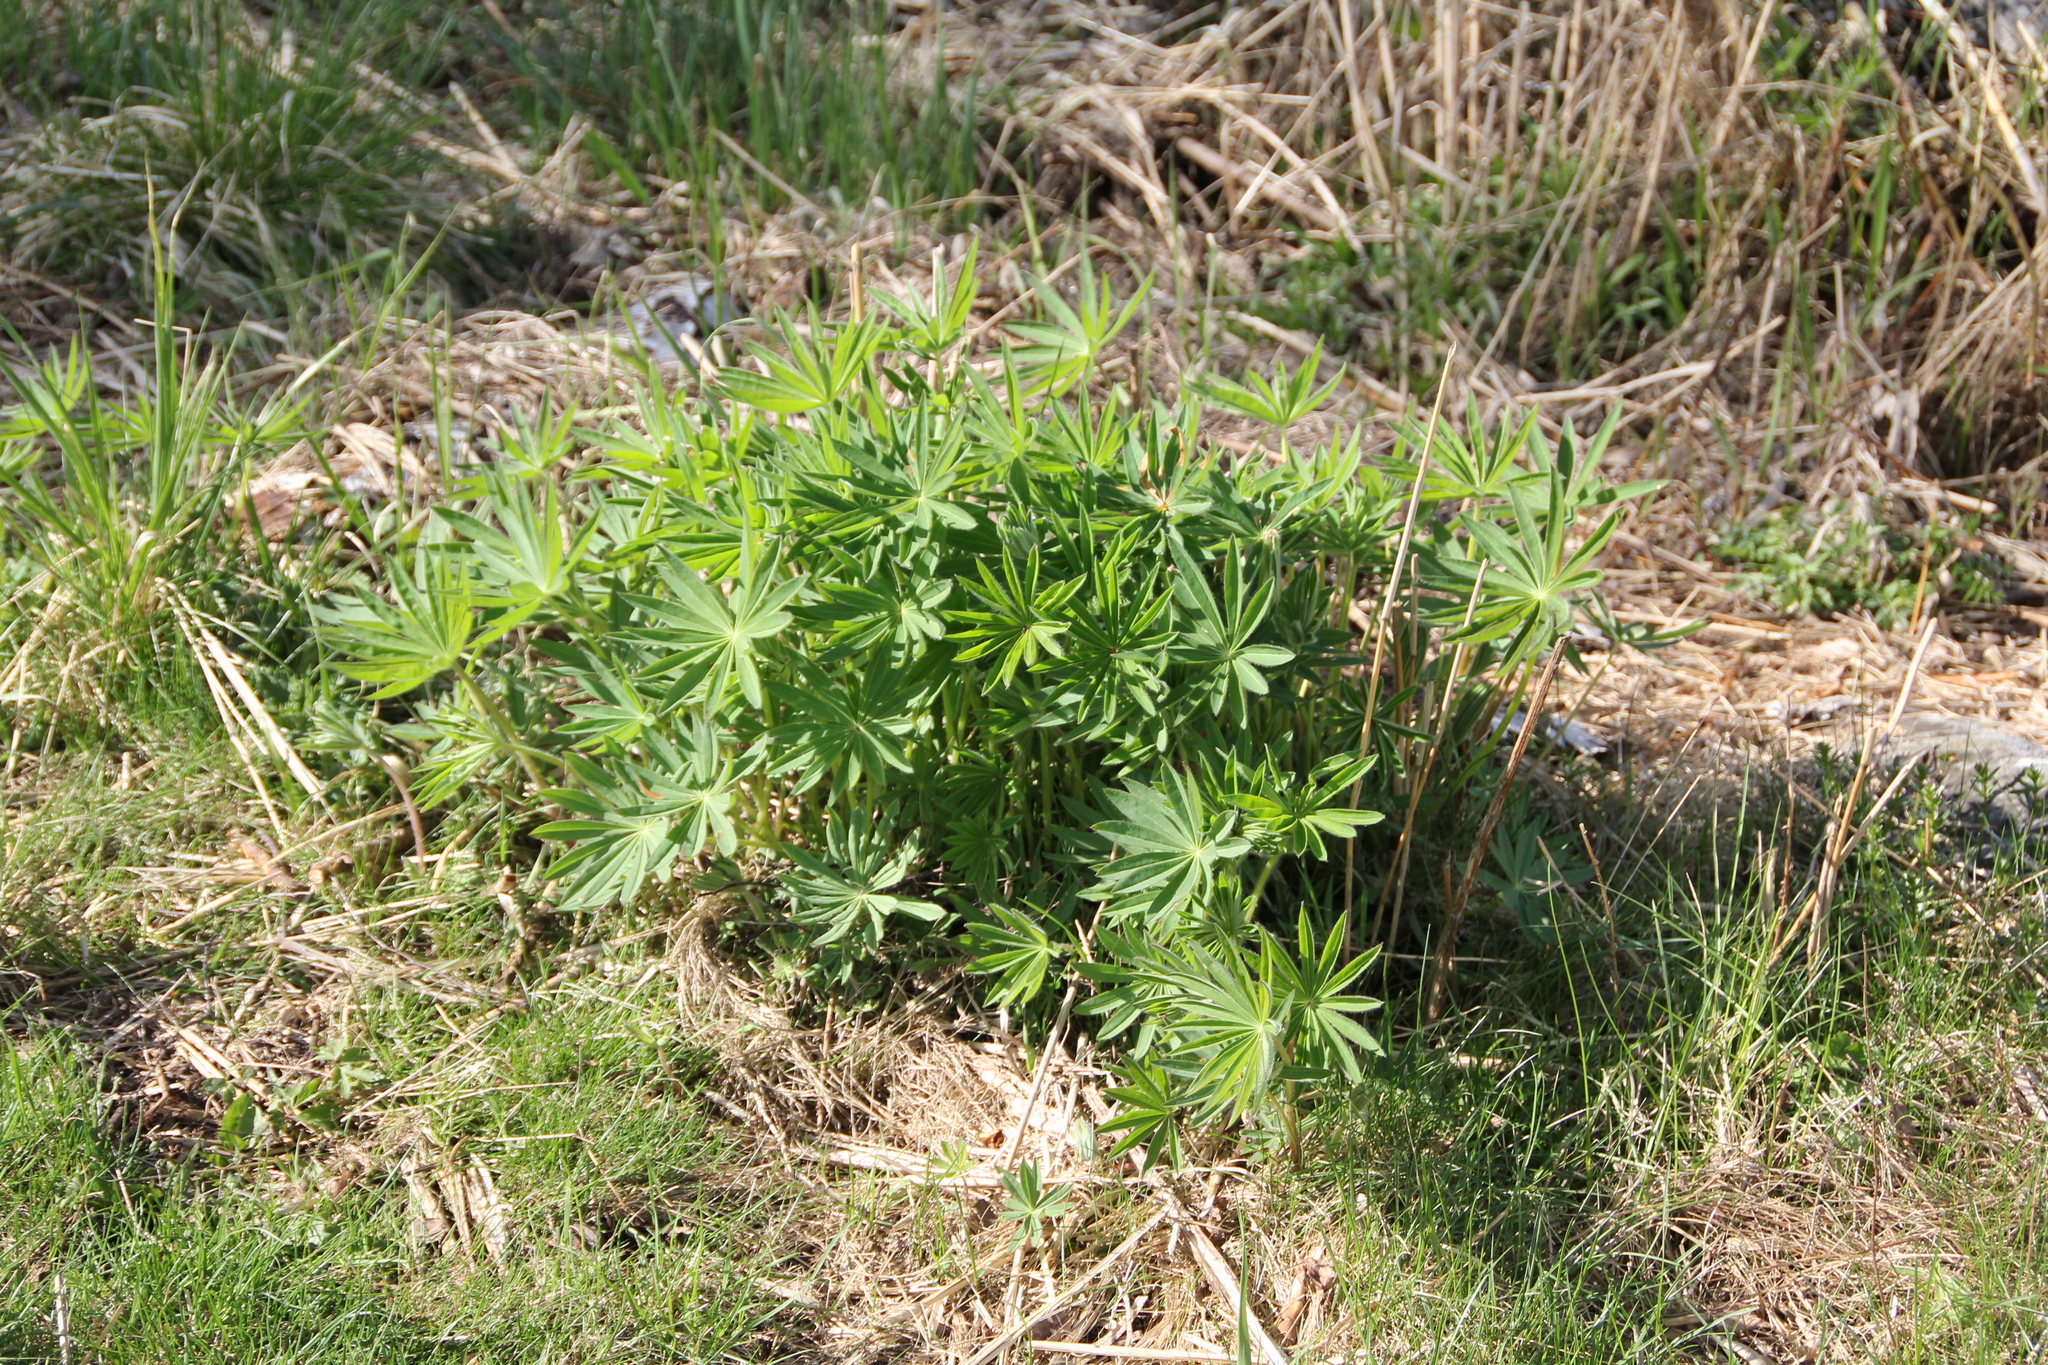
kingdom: Plantae
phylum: Tracheophyta
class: Magnoliopsida
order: Fabales
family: Fabaceae
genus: Lupinus
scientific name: Lupinus polyphyllus
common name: Garden lupin
